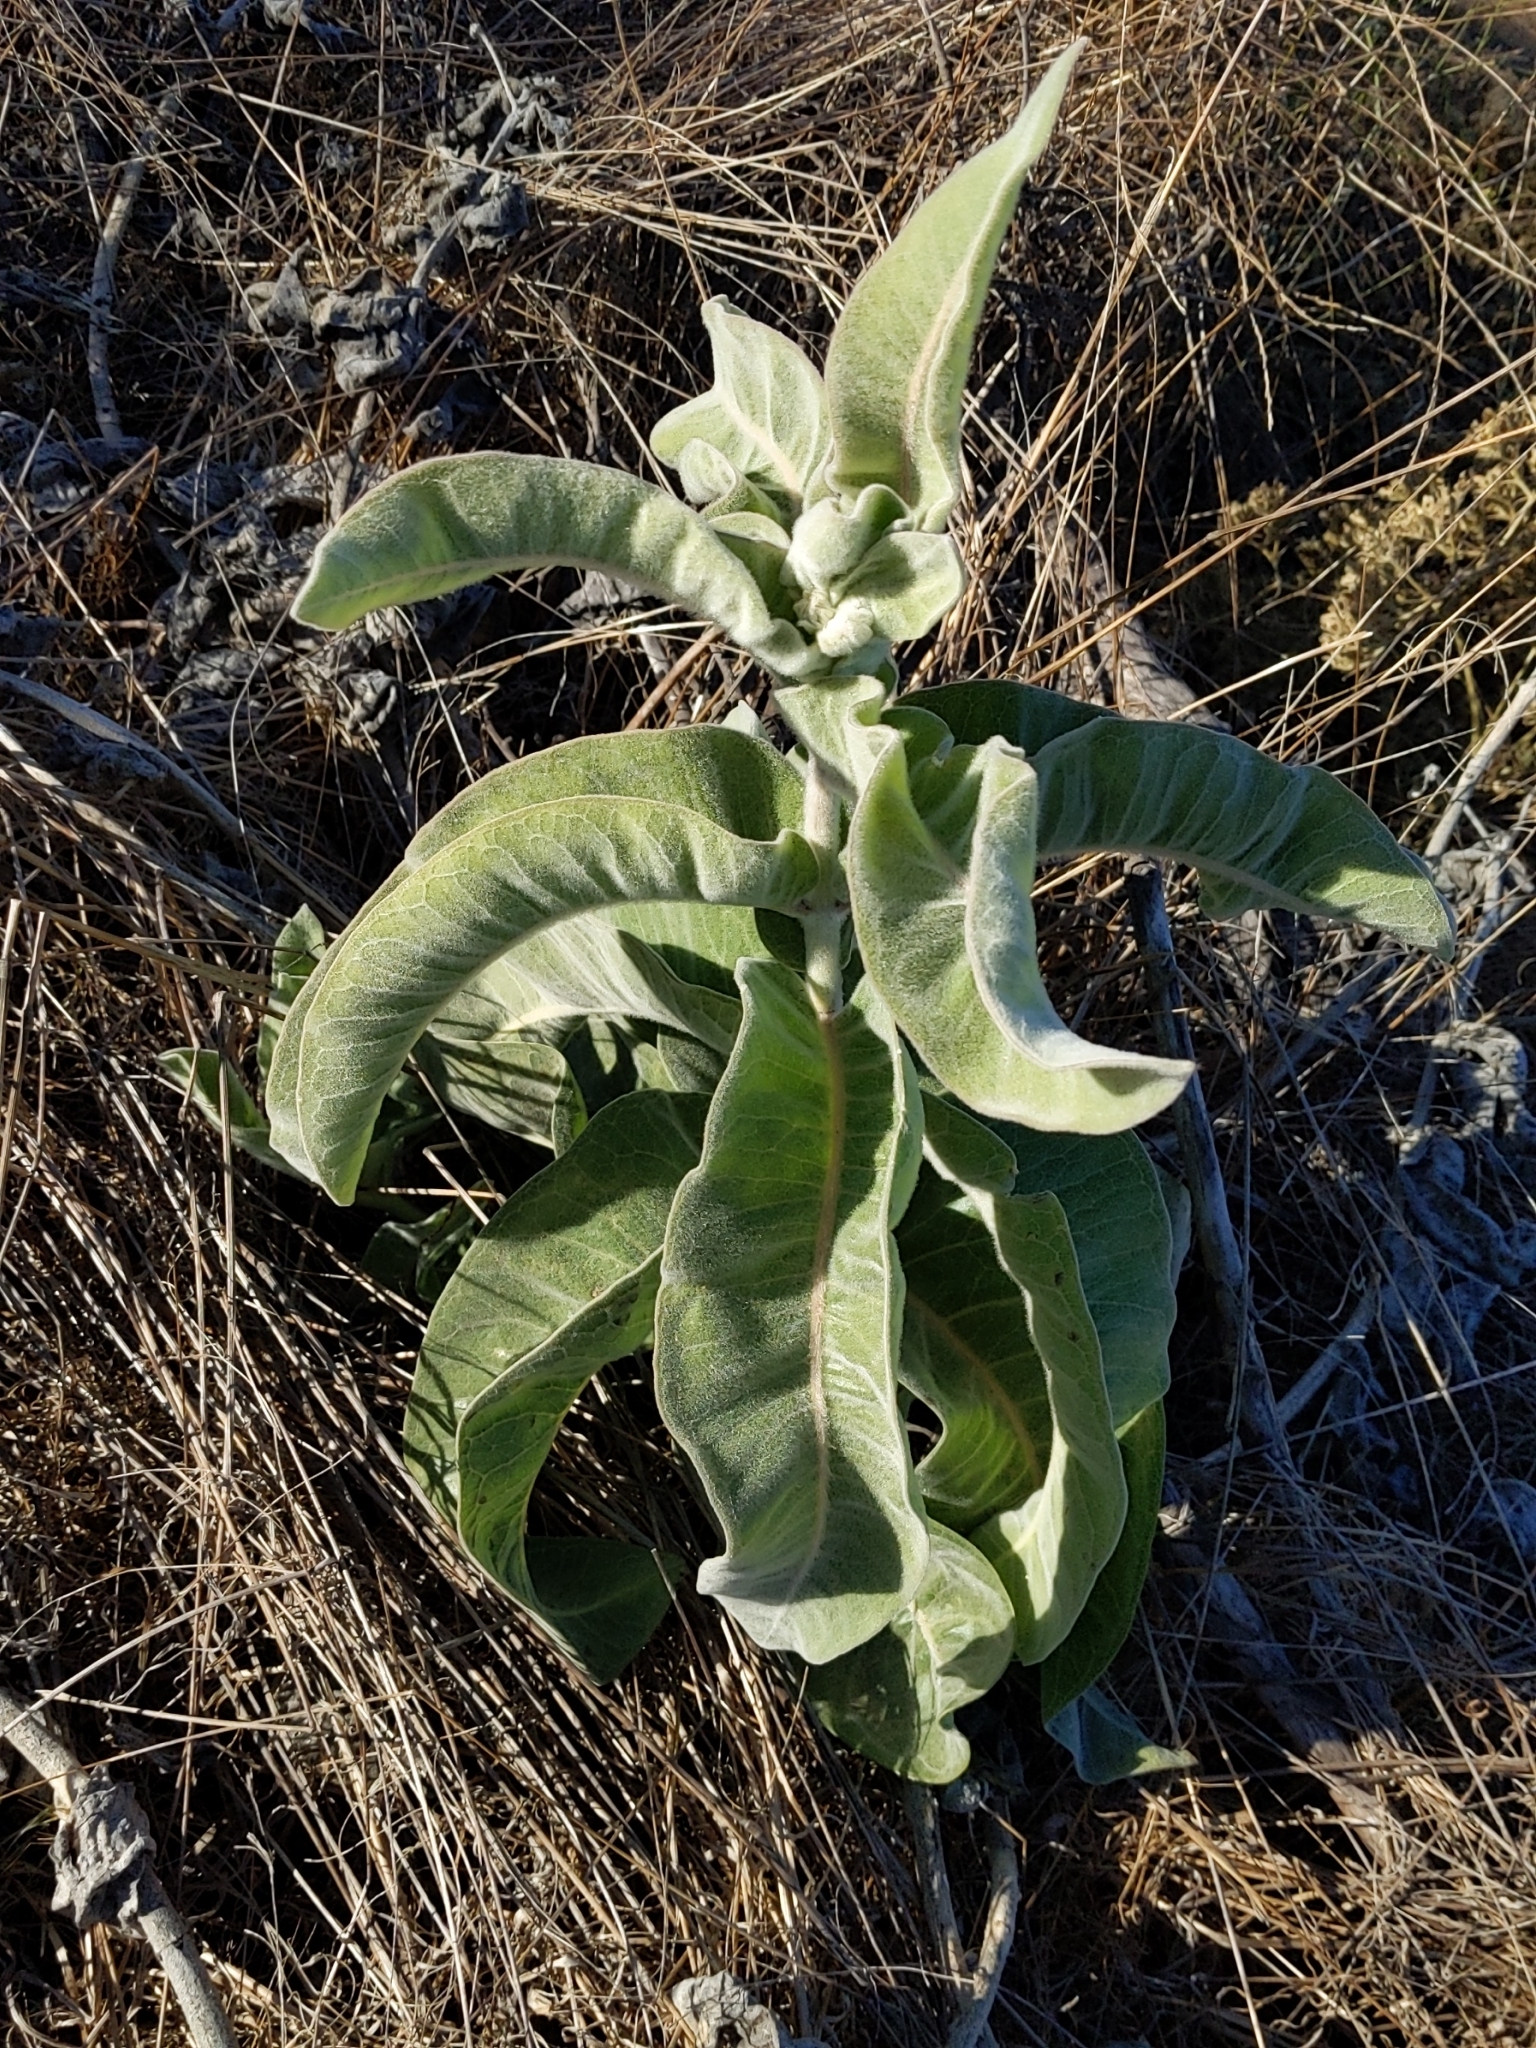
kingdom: Plantae
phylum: Tracheophyta
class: Magnoliopsida
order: Gentianales
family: Apocynaceae
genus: Asclepias
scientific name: Asclepias eriocarpa
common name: Indian milkweed
